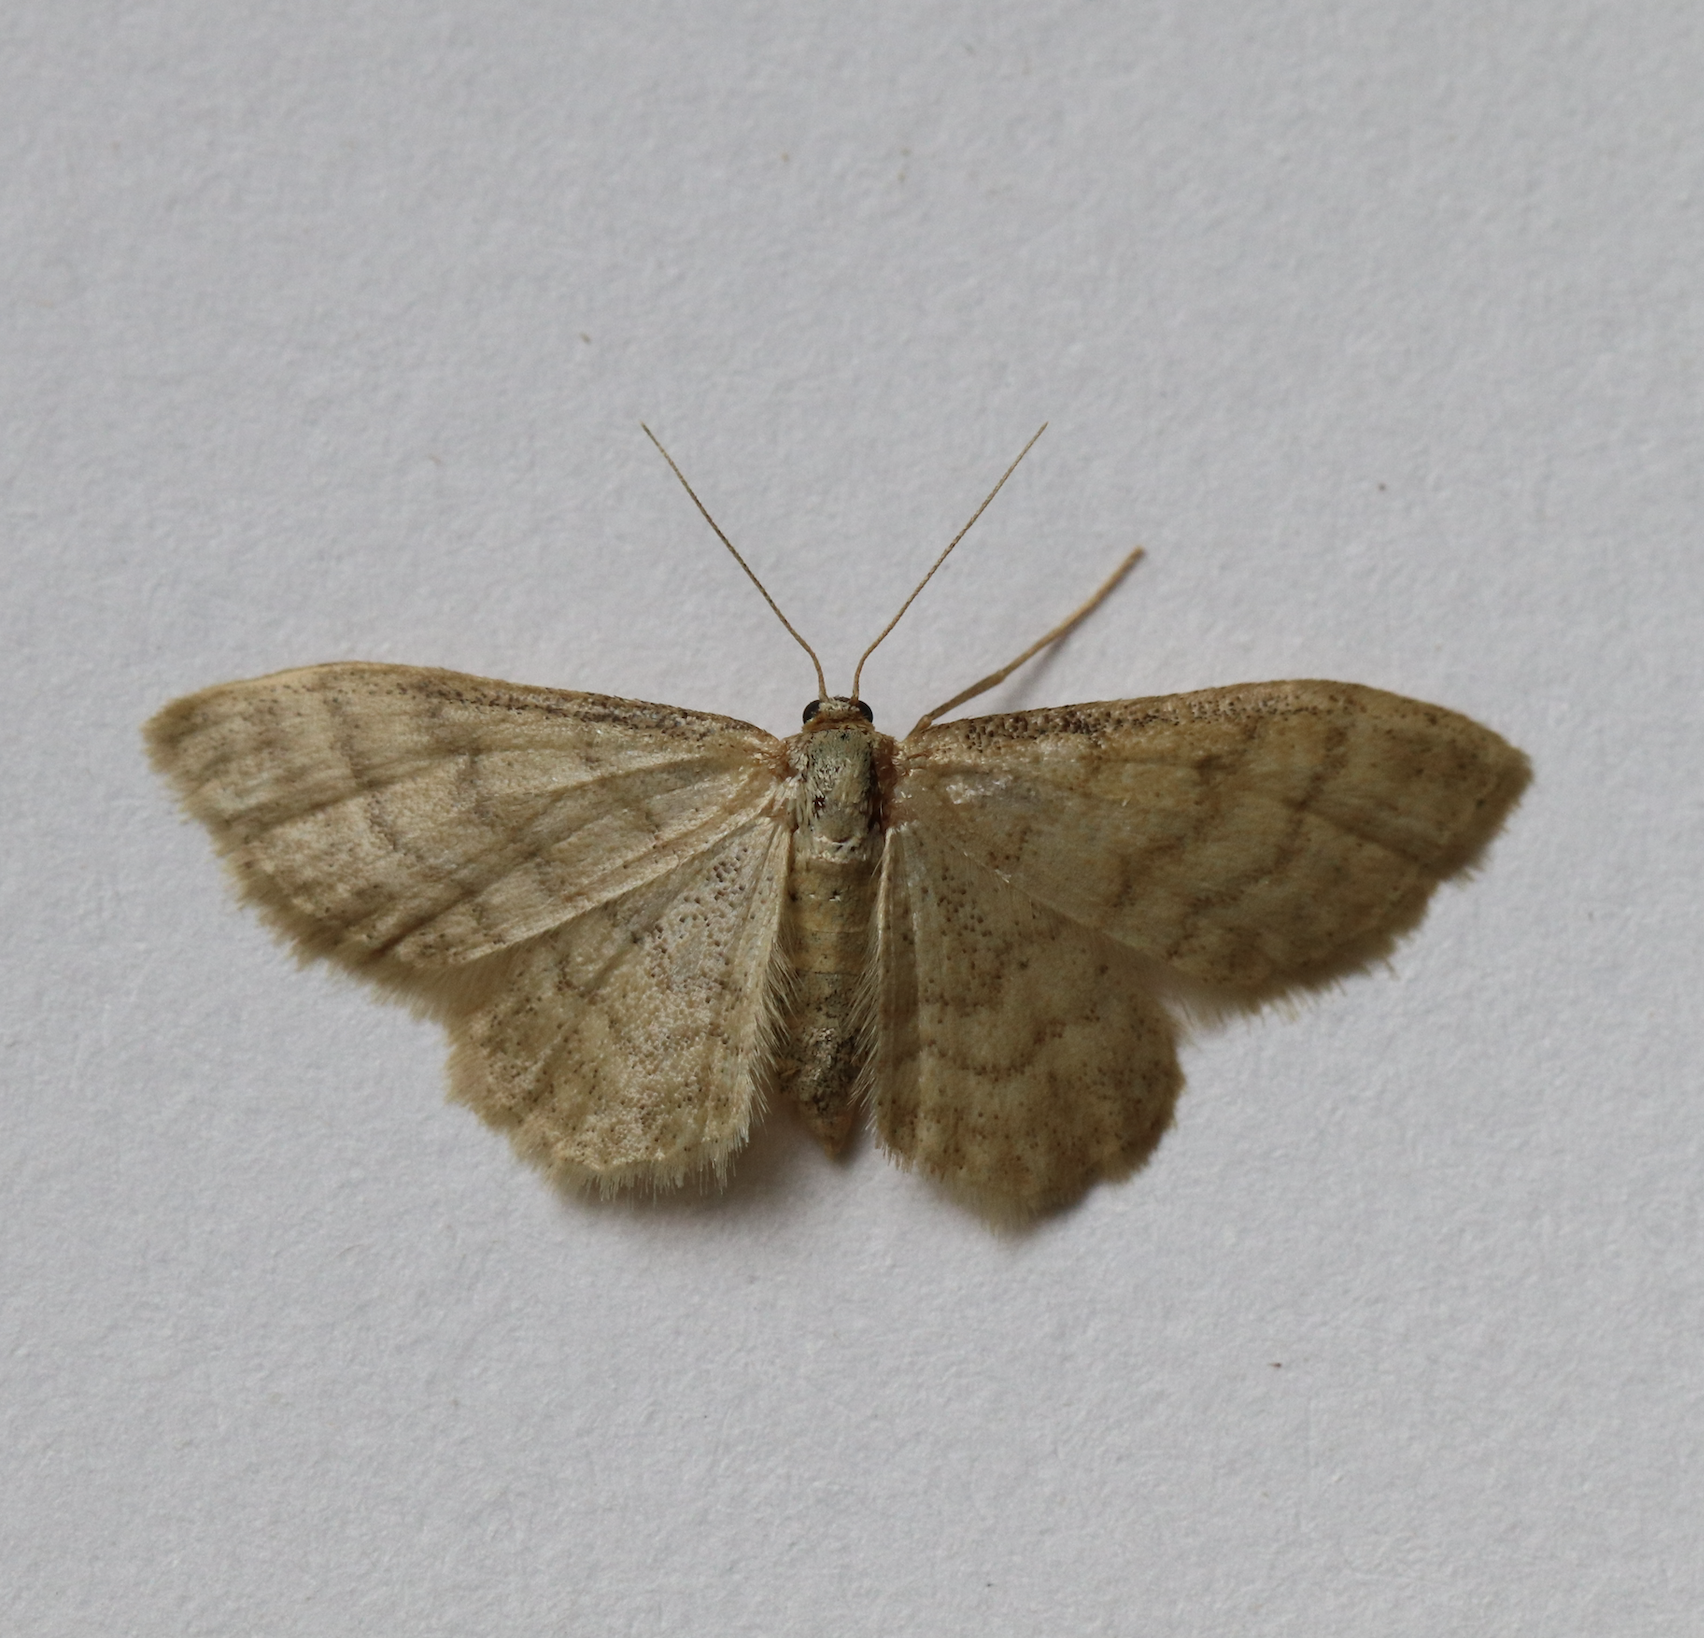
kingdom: Animalia
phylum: Arthropoda
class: Insecta
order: Lepidoptera
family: Geometridae
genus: Idaea
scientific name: Idaea dilutaria
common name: Silky wave
